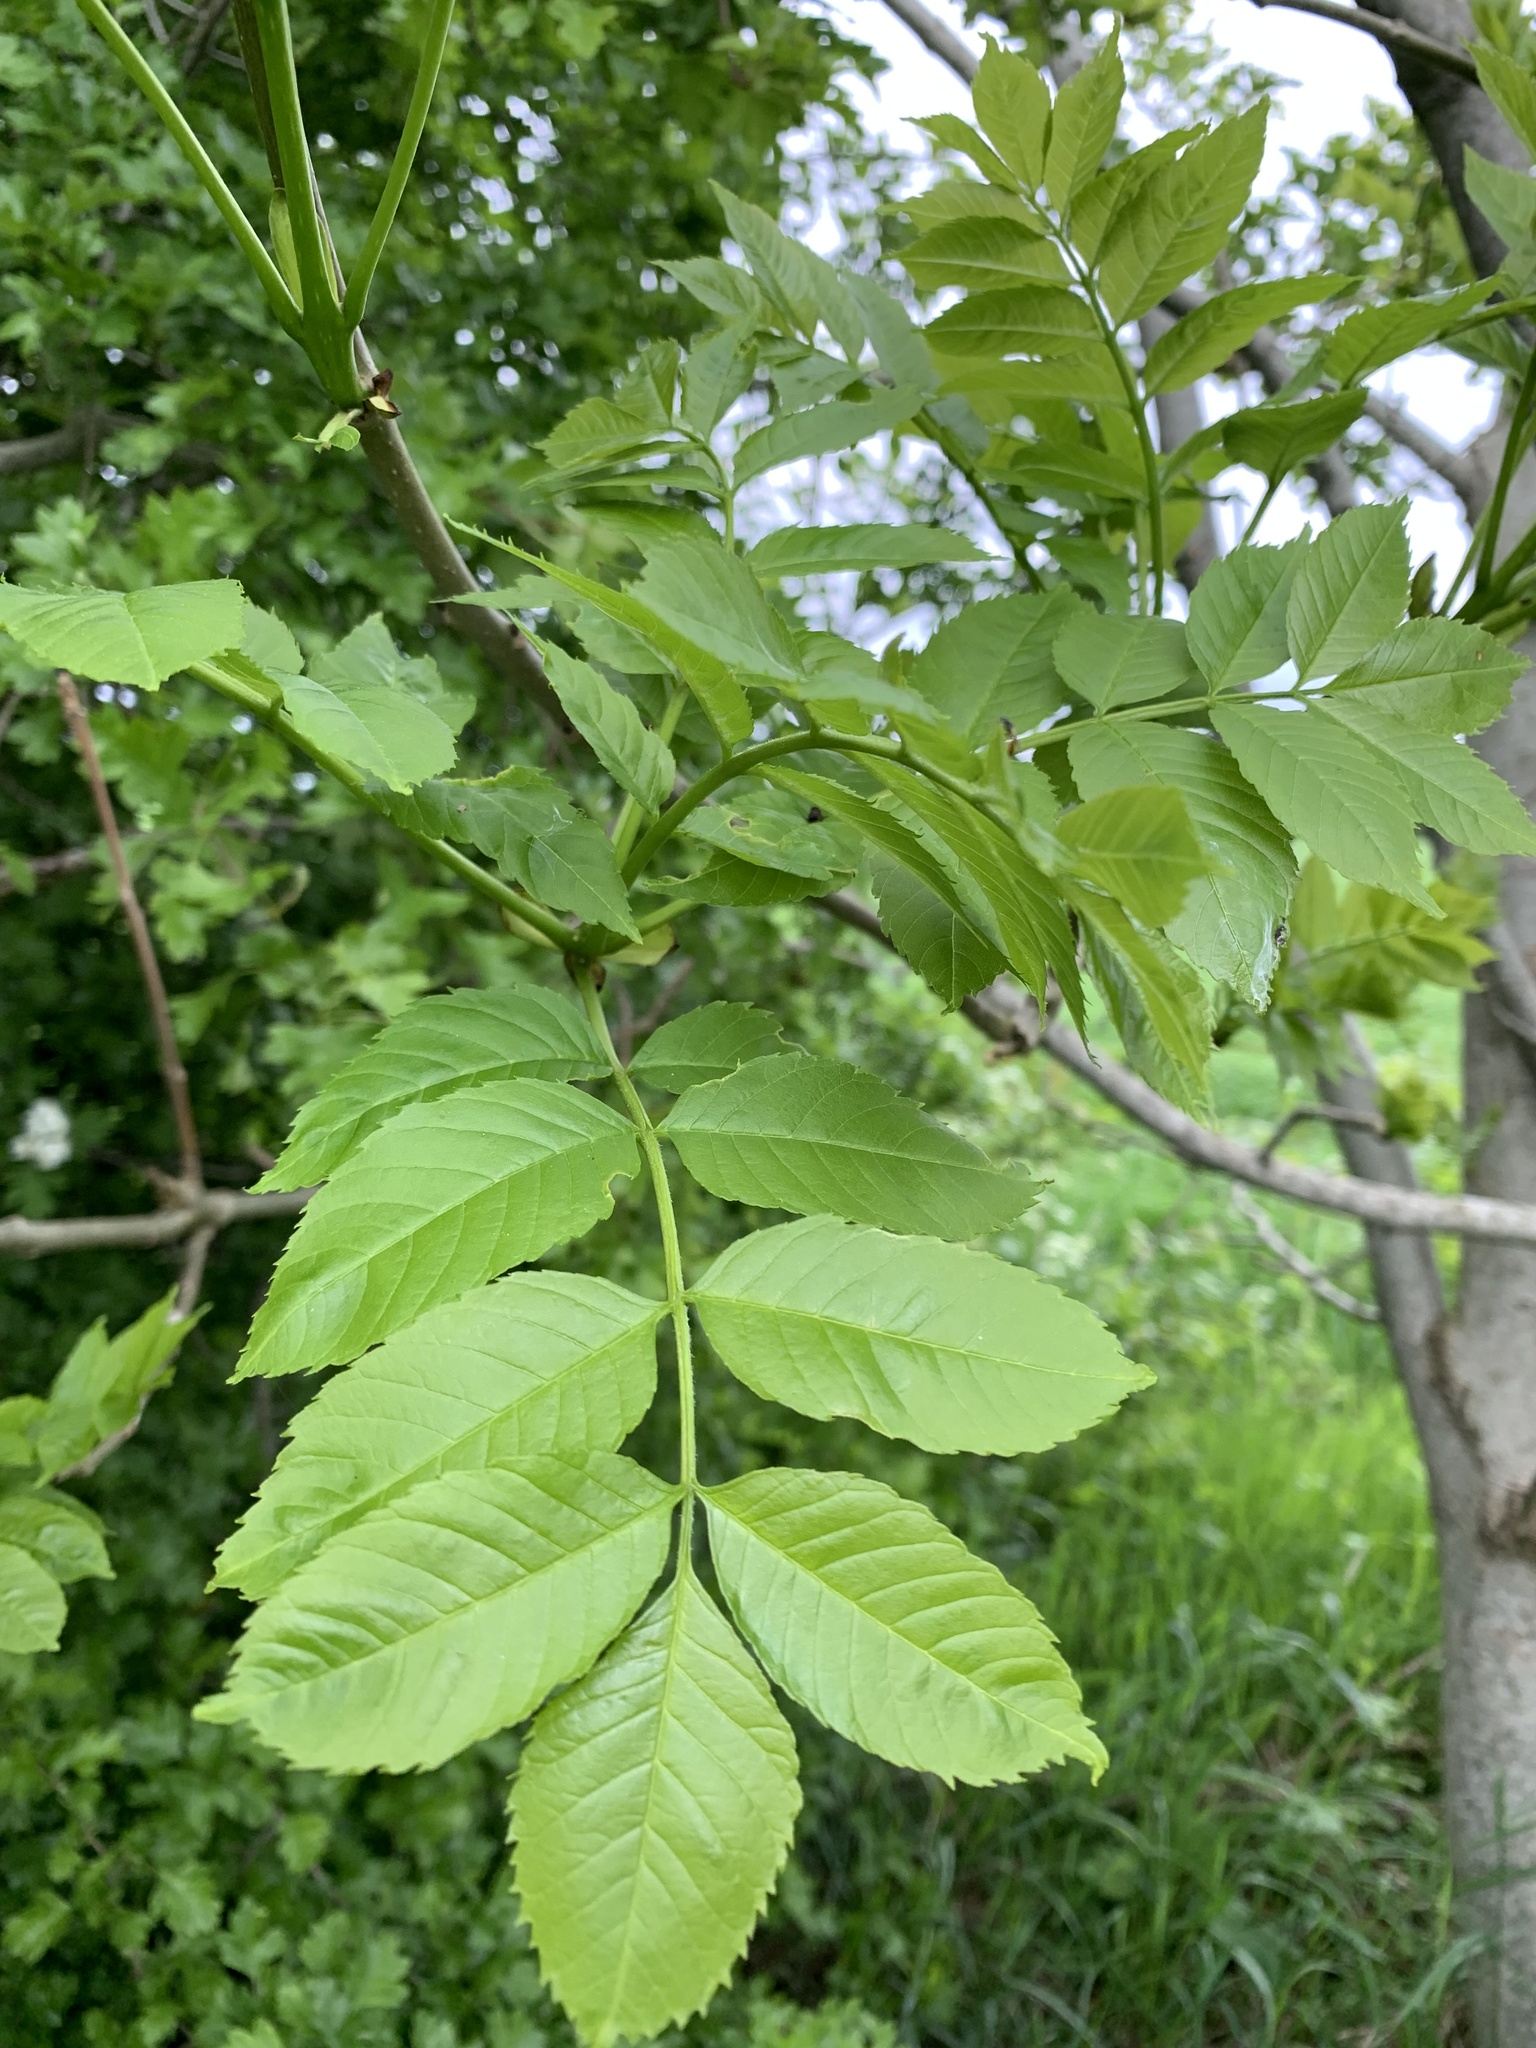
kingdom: Plantae
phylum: Tracheophyta
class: Magnoliopsida
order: Lamiales
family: Oleaceae
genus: Fraxinus
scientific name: Fraxinus excelsior
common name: European ash
